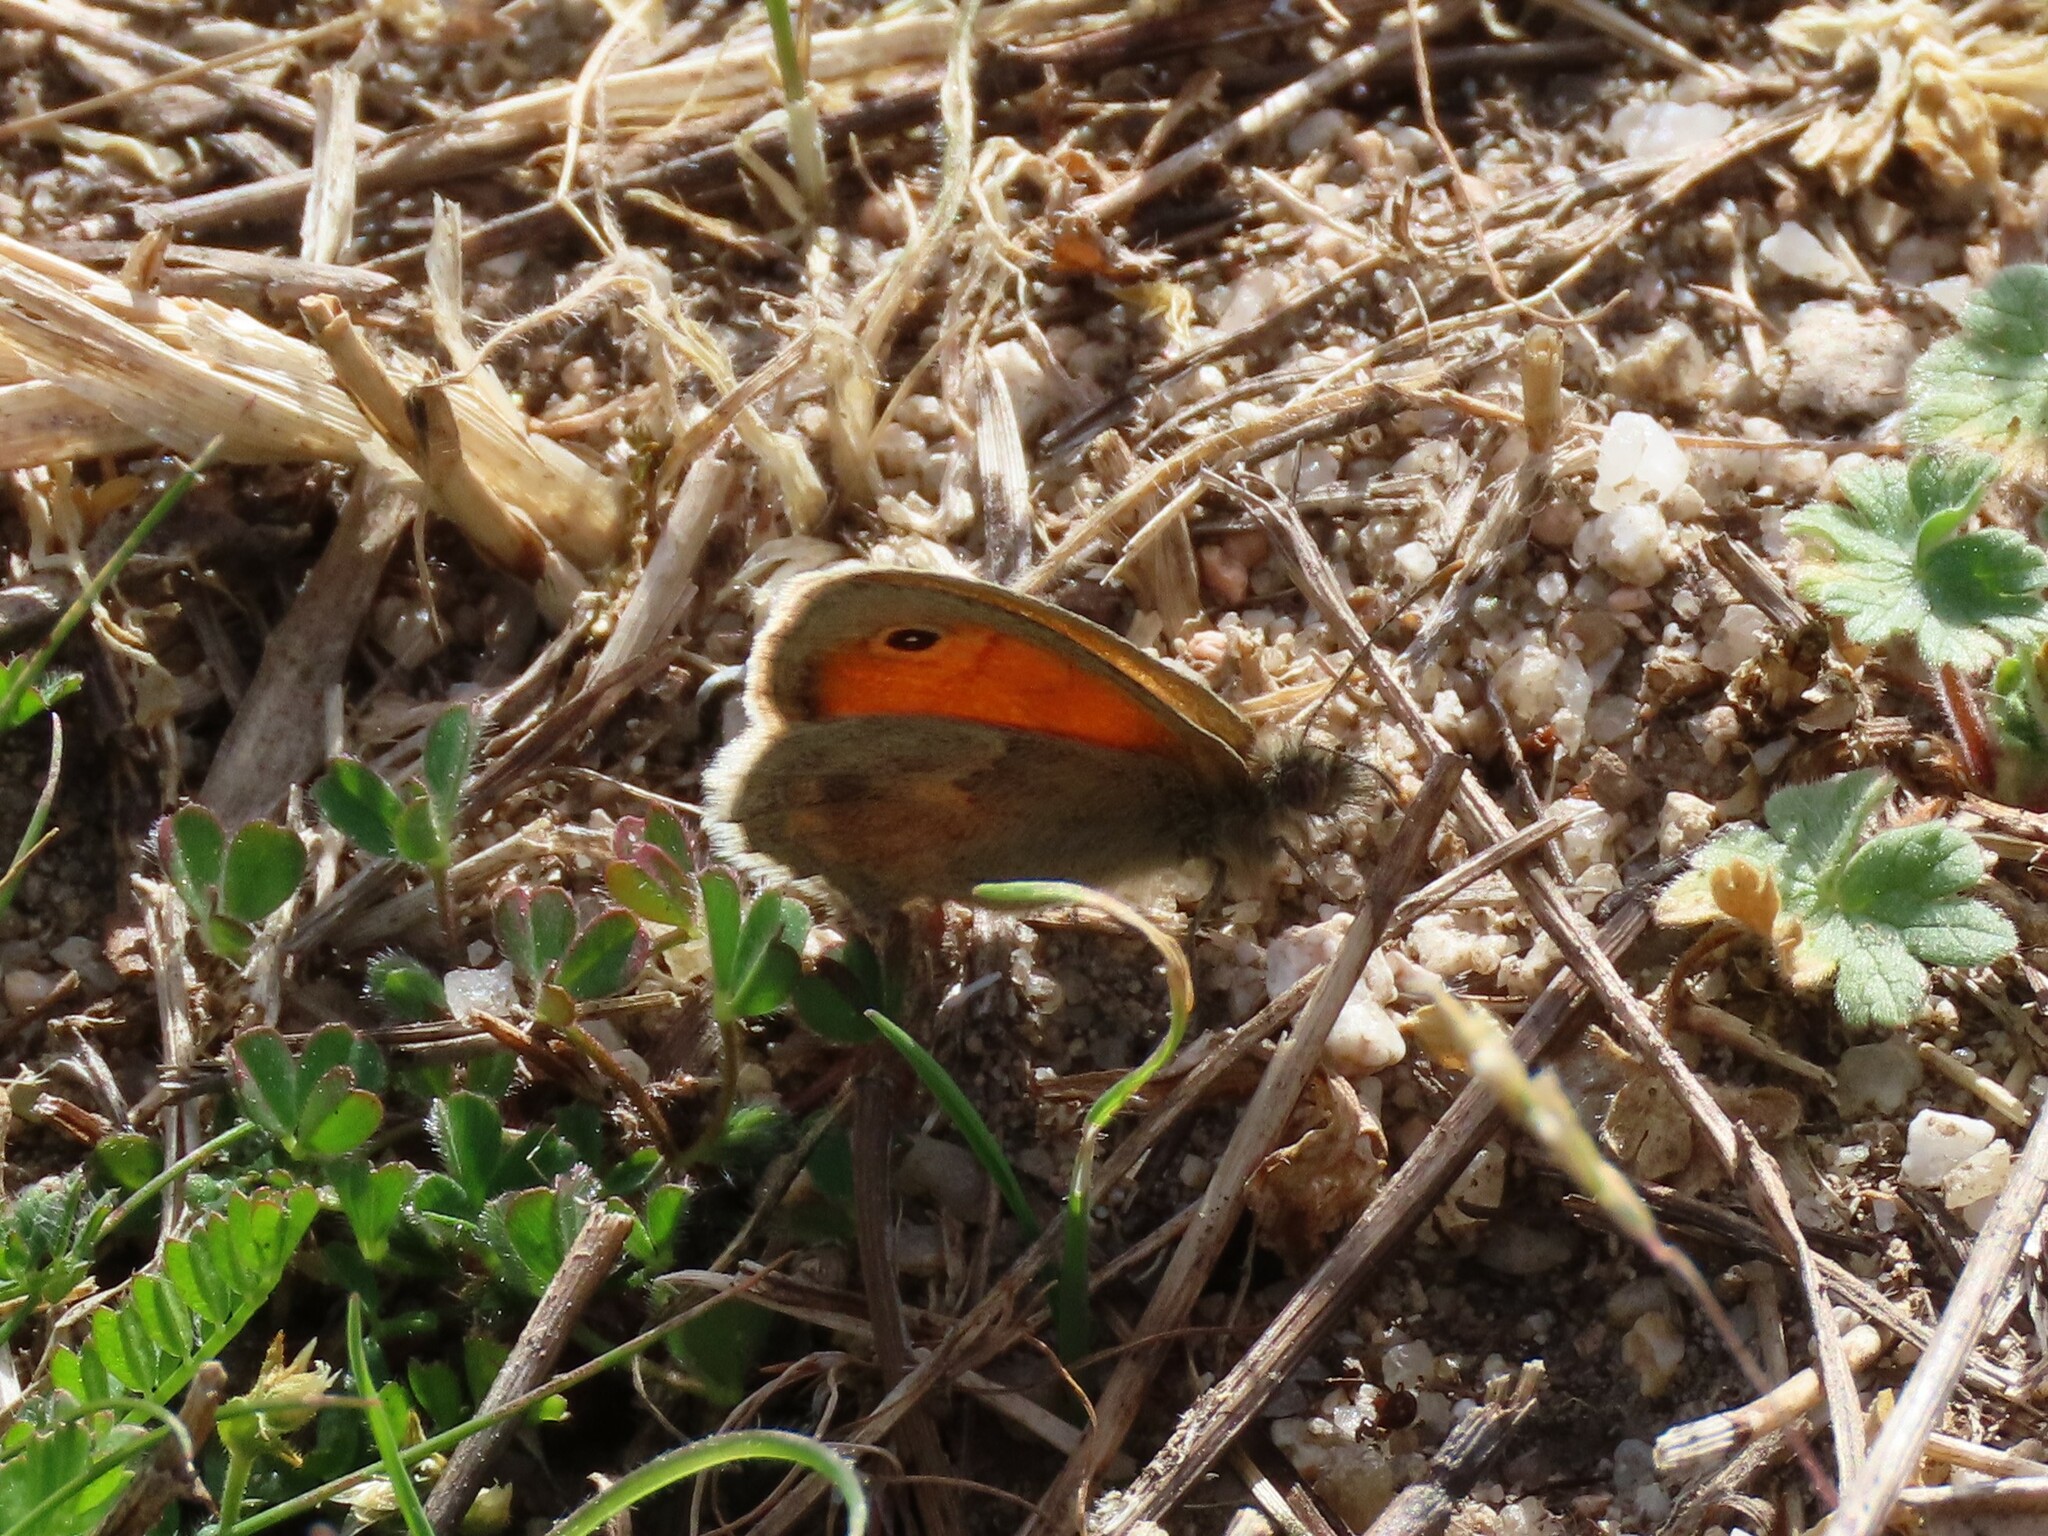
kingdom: Animalia
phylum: Arthropoda
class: Insecta
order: Lepidoptera
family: Nymphalidae
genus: Coenonympha
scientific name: Coenonympha pamphilus
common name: Small heath
